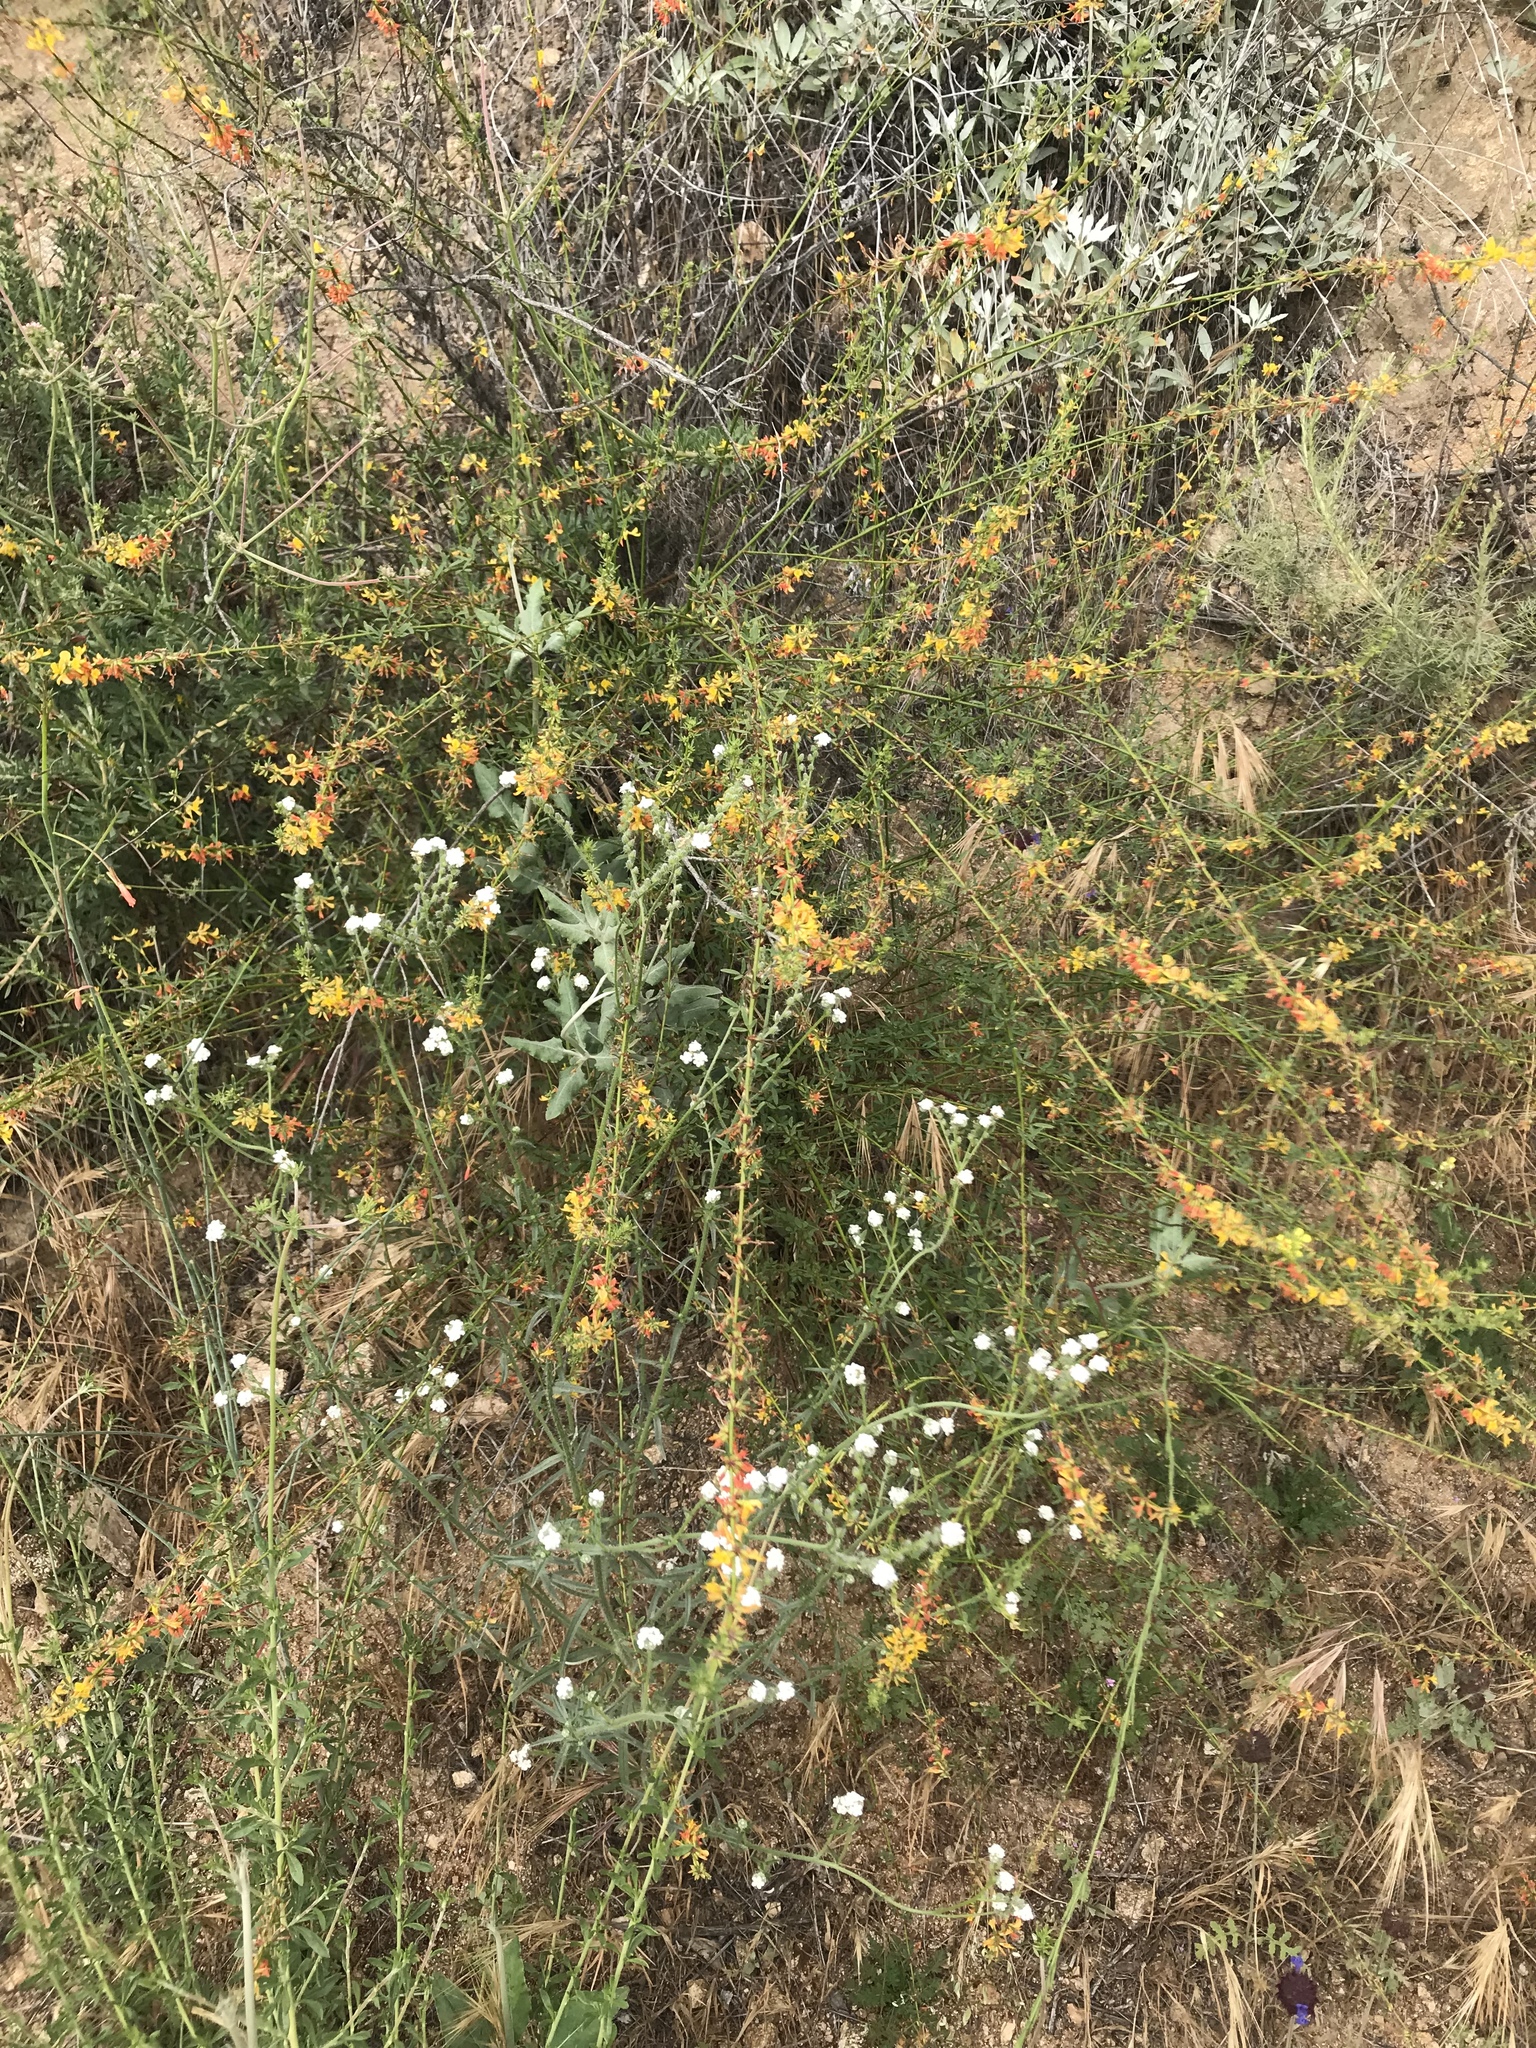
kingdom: Plantae
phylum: Tracheophyta
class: Magnoliopsida
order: Fabales
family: Fabaceae
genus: Acmispon
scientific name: Acmispon glaber
